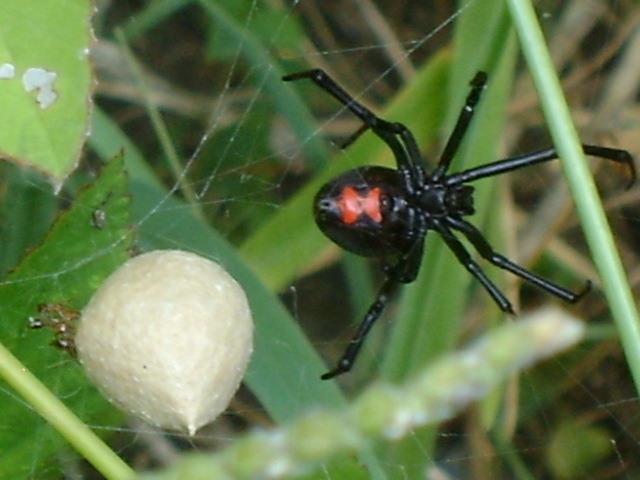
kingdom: Animalia
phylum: Arthropoda
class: Arachnida
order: Araneae
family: Theridiidae
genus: Latrodectus
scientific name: Latrodectus mactans
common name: Cobweb spiders
